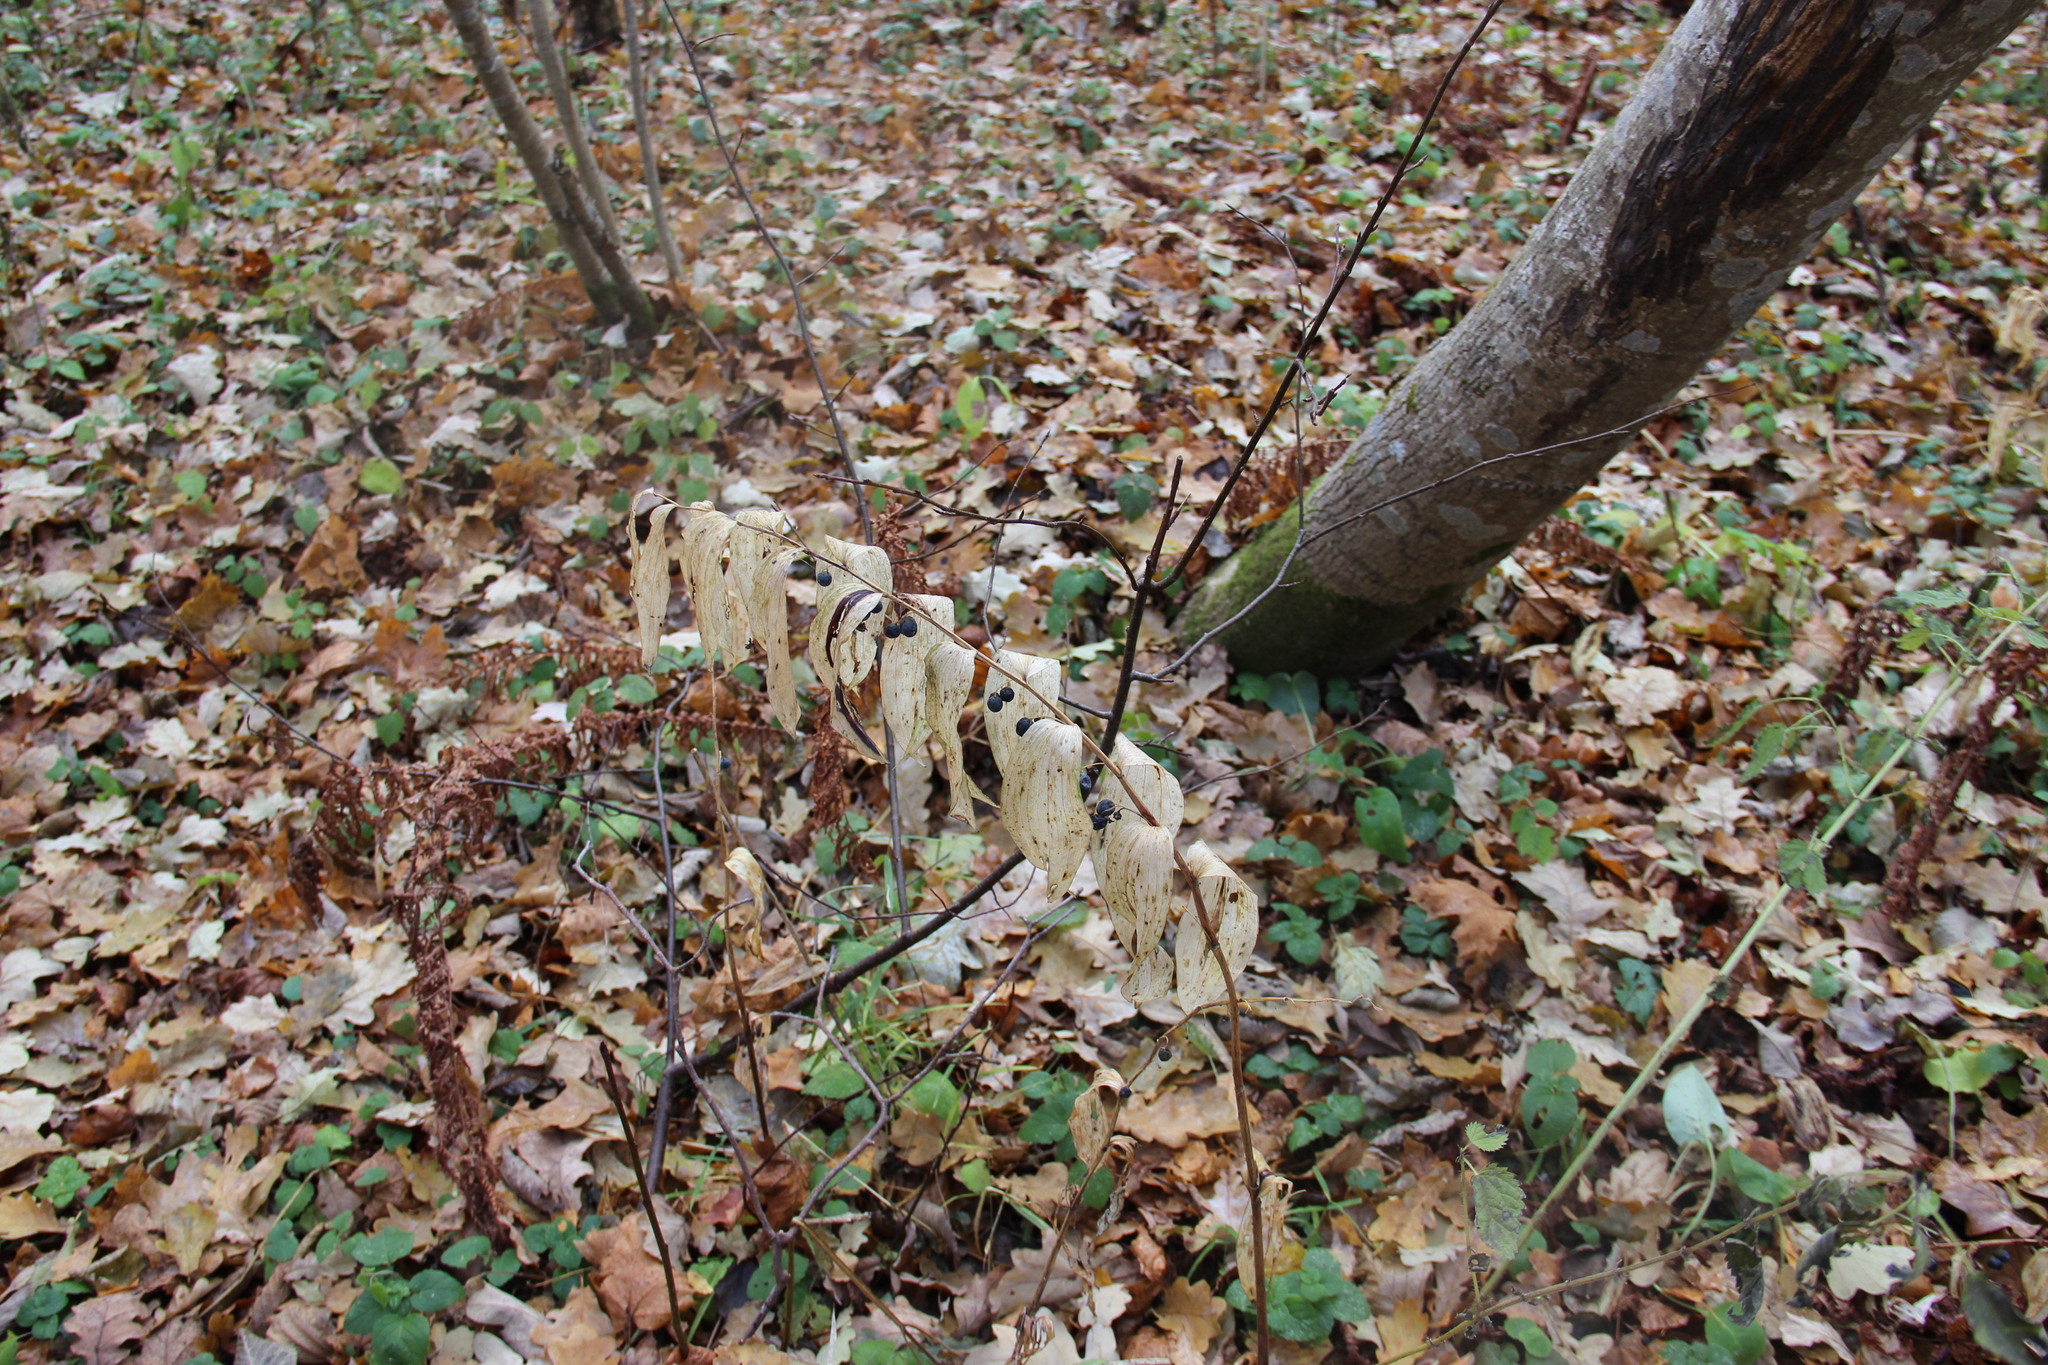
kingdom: Plantae
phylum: Tracheophyta
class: Liliopsida
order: Asparagales
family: Asparagaceae
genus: Polygonatum
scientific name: Polygonatum multiflorum
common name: Solomon's-seal
